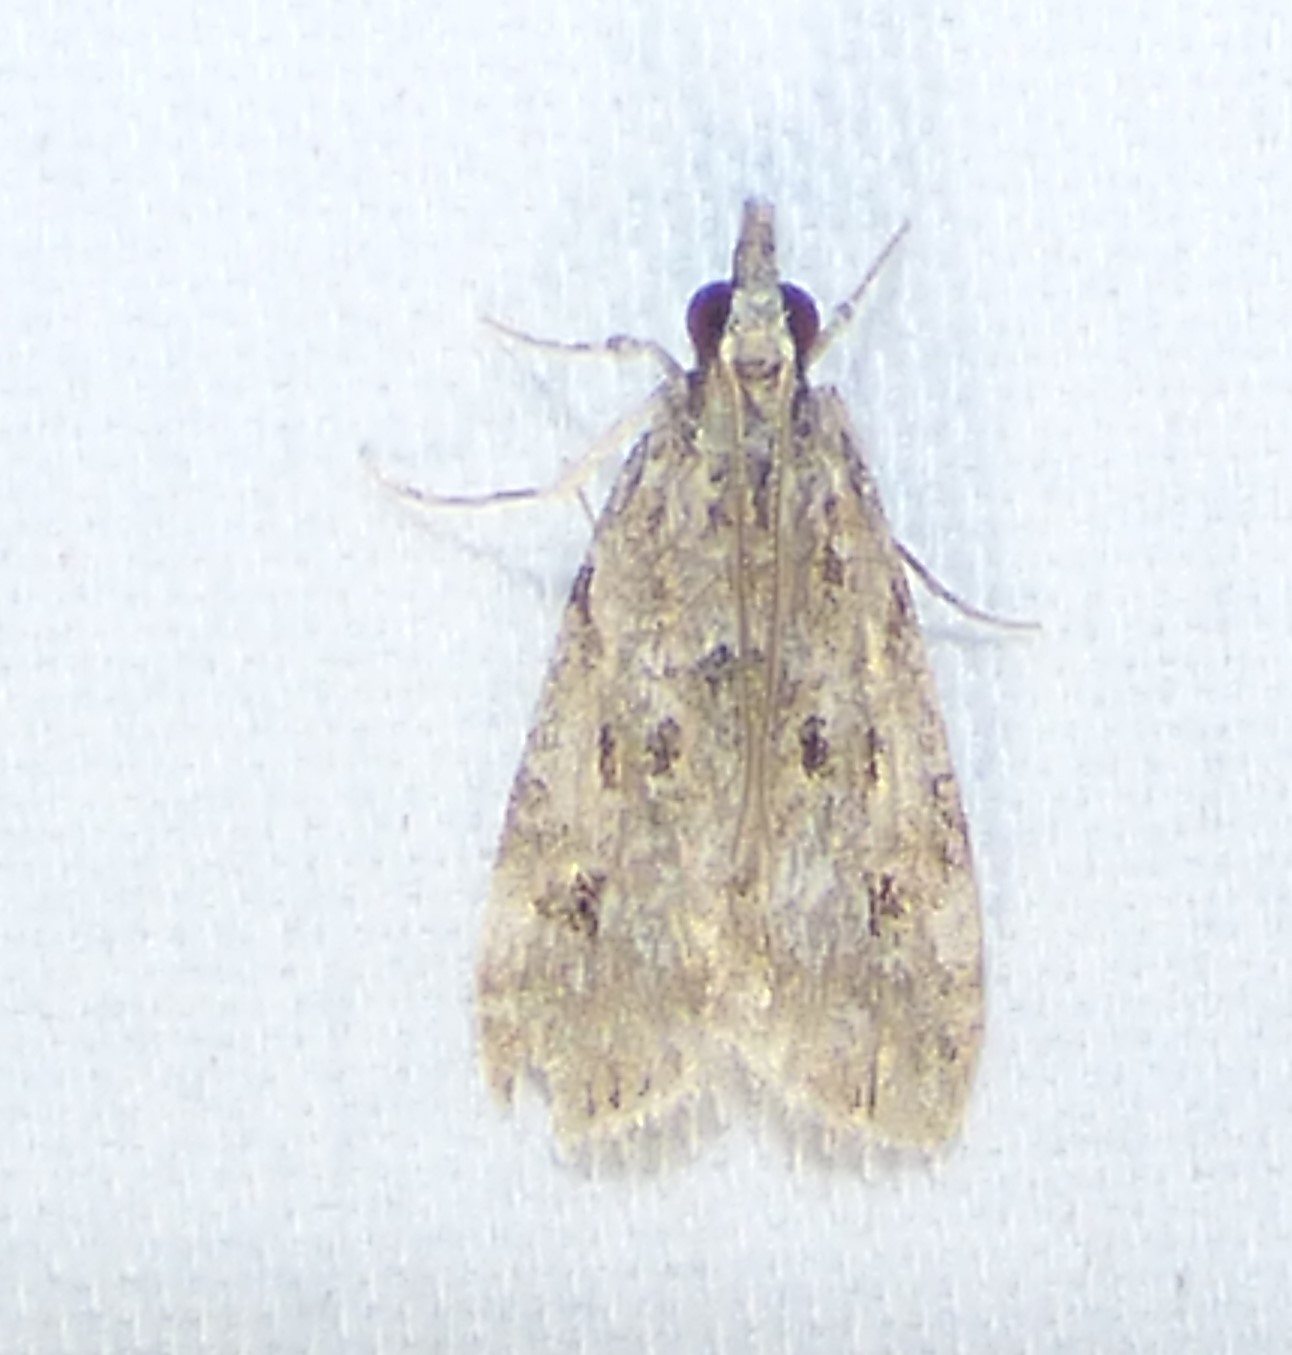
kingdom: Animalia
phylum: Arthropoda
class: Insecta
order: Lepidoptera
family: Crambidae
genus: Eudonia
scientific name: Eudonia heterosalis
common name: Mcdunnough's eudonia
